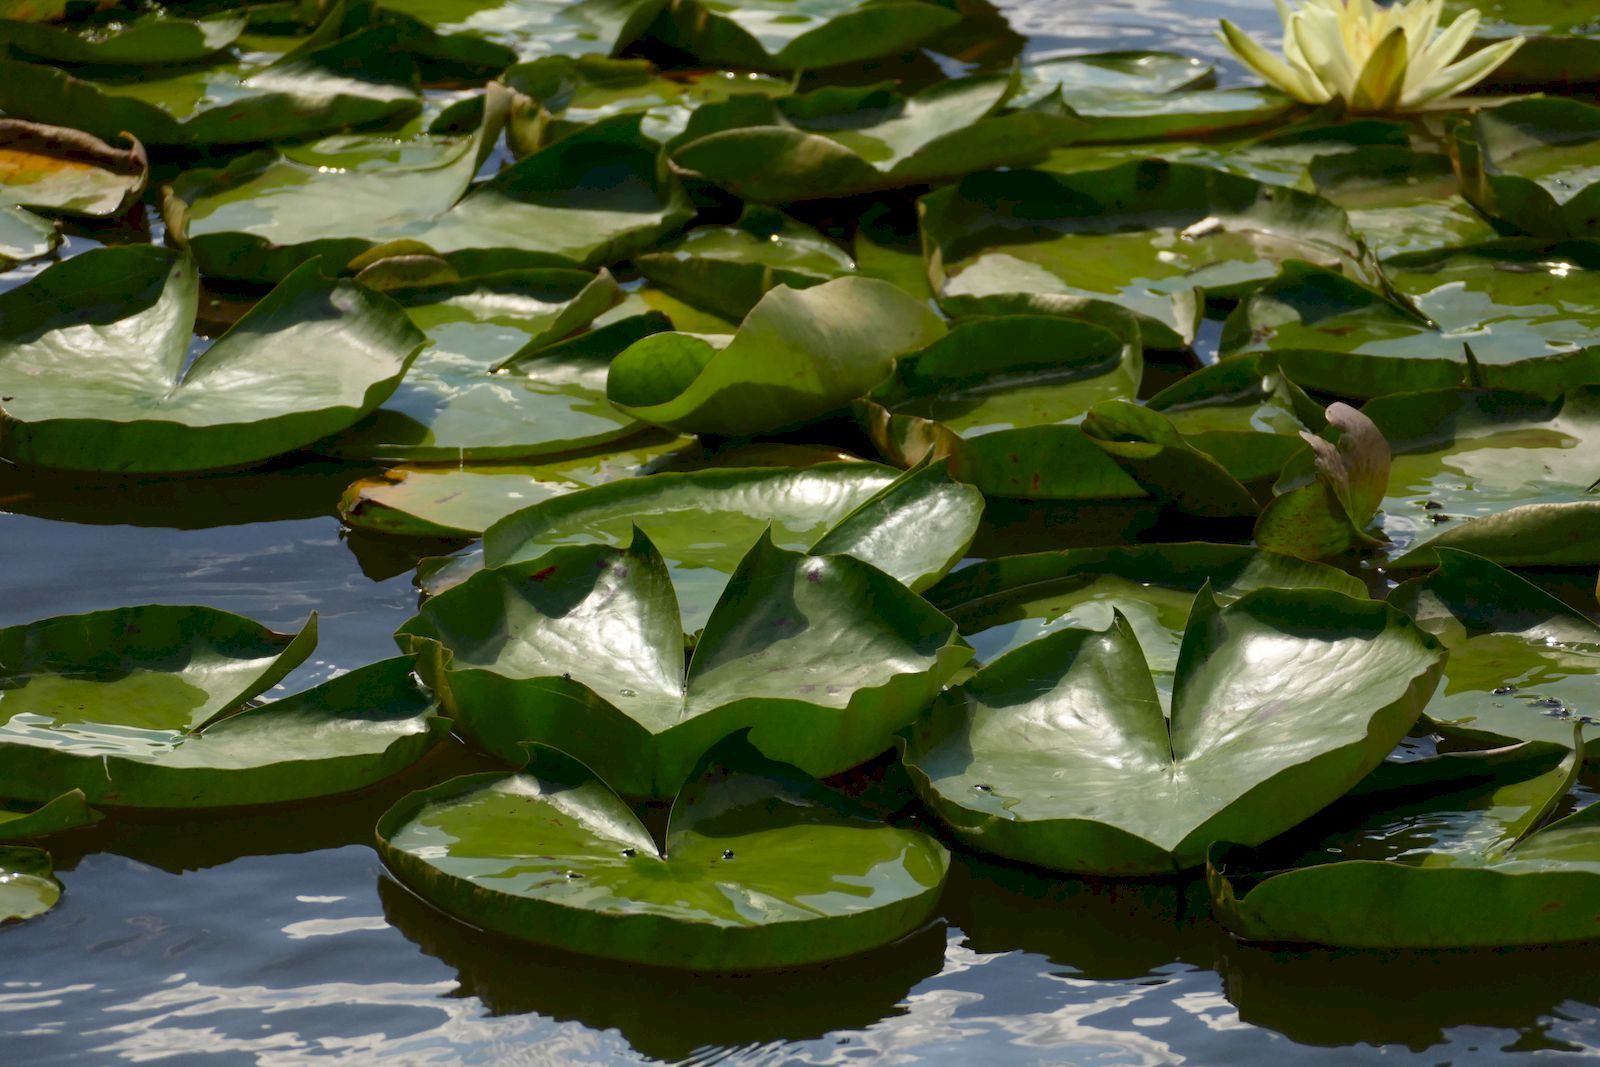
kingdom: Plantae
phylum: Tracheophyta
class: Magnoliopsida
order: Nymphaeales
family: Nymphaeaceae
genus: Nymphaea
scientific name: Nymphaea alba
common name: White water-lily
